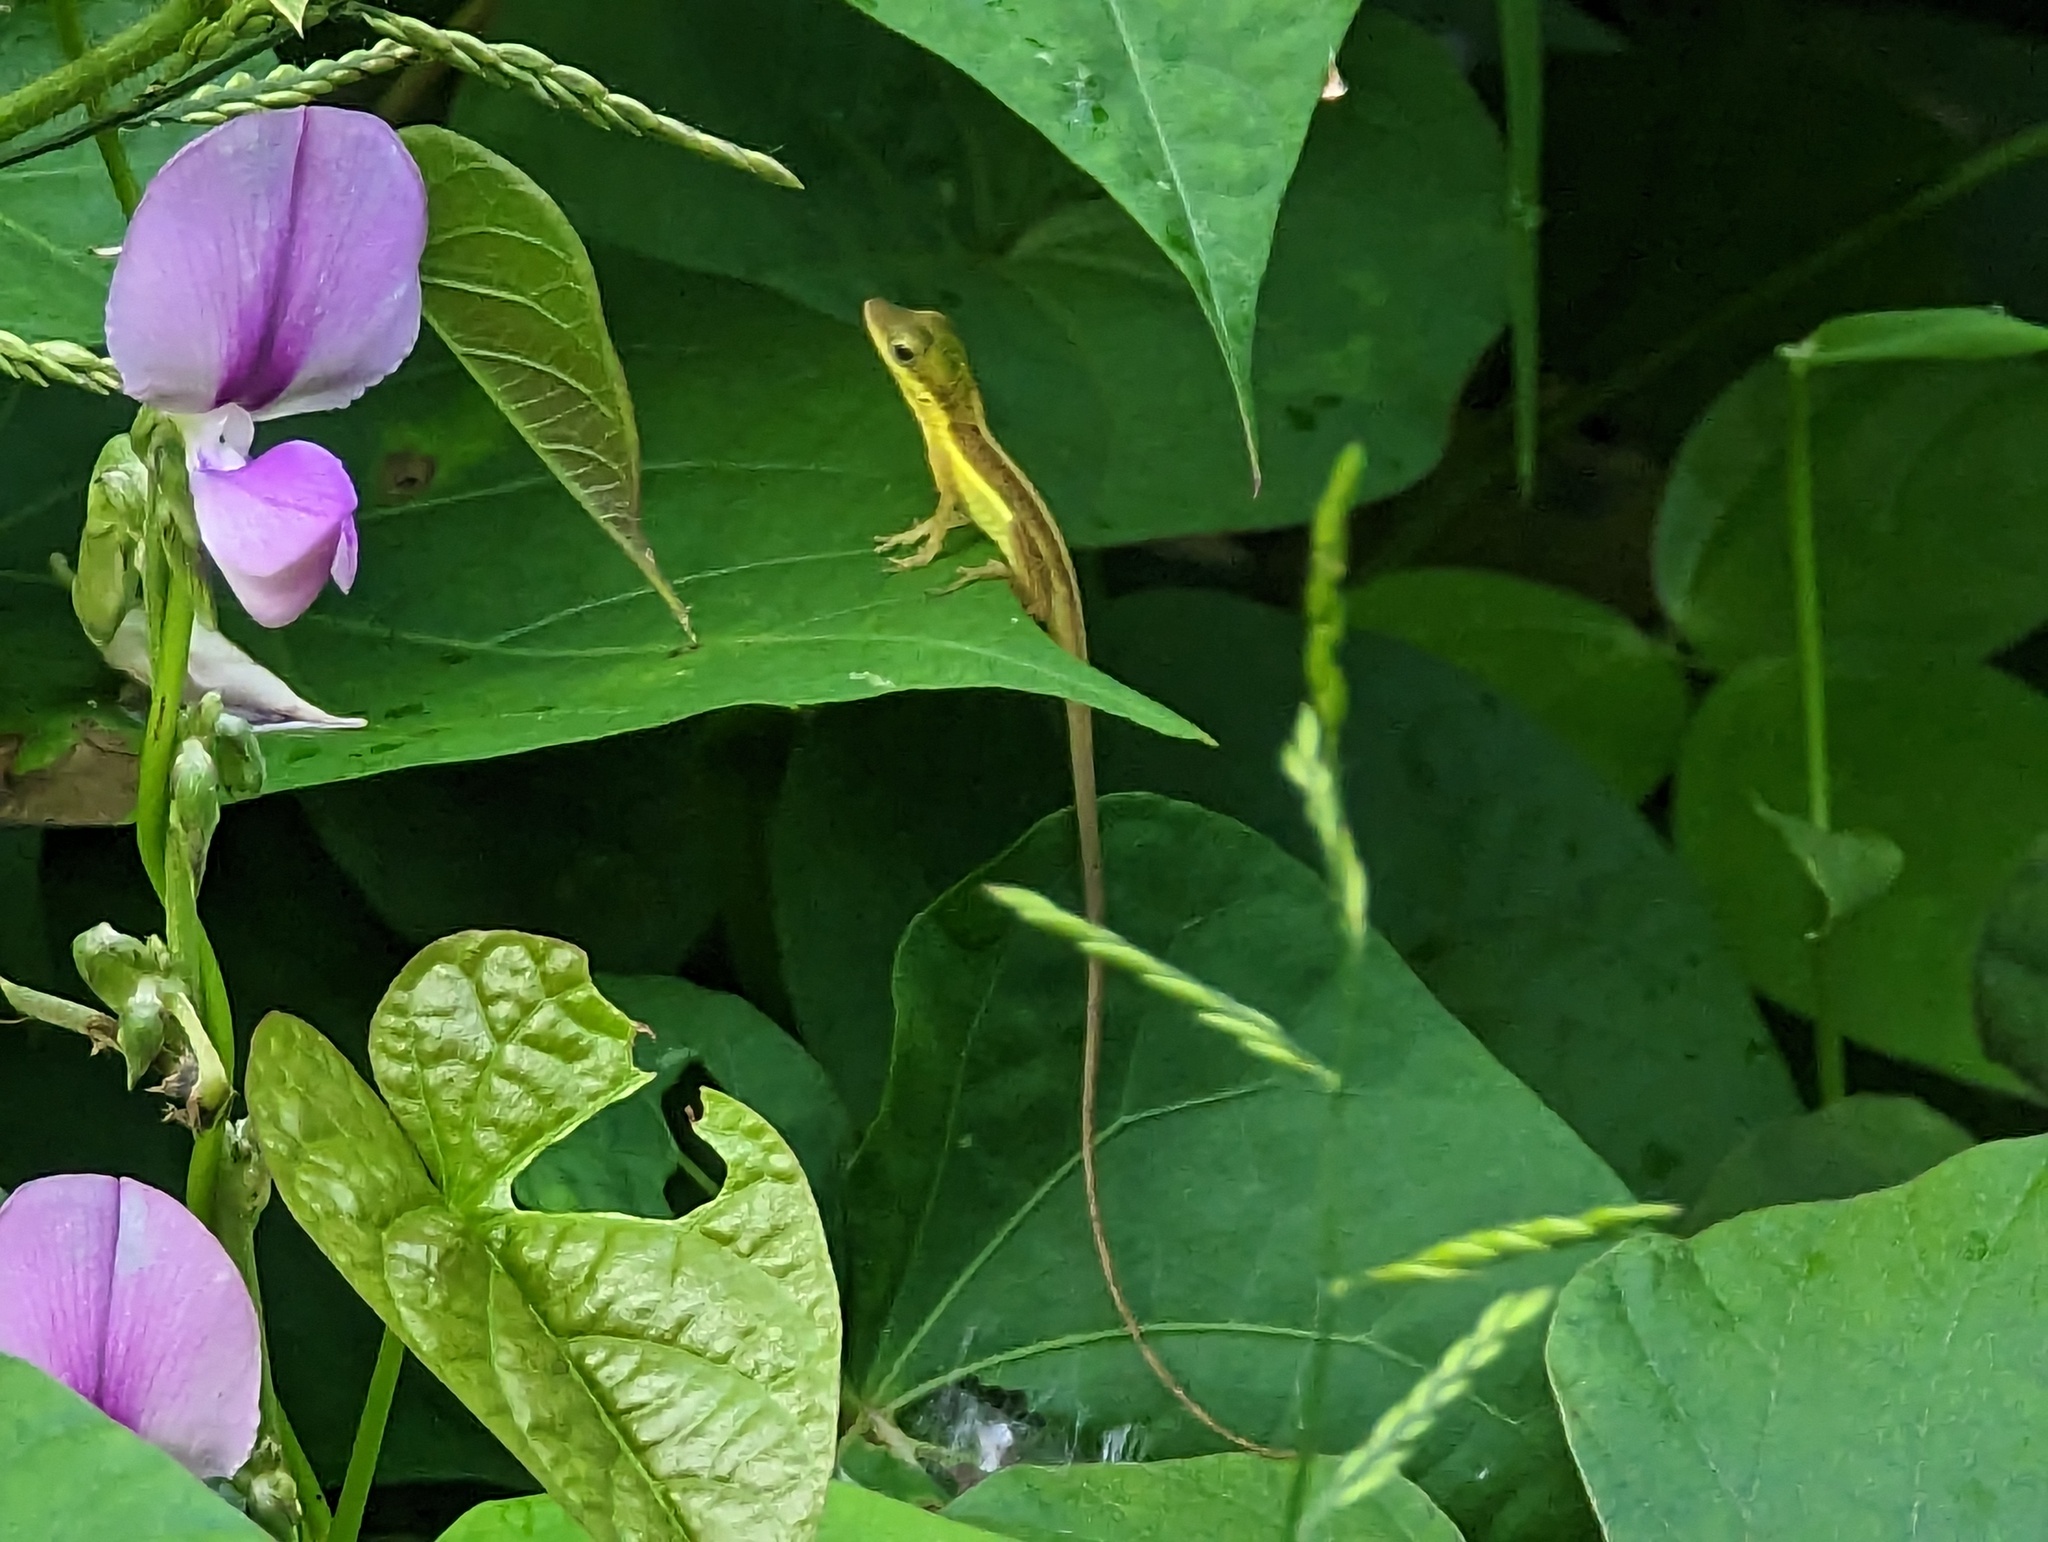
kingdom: Animalia
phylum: Chordata
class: Squamata
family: Dactyloidae
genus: Anolis
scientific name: Anolis krugi
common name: Krug's anole
